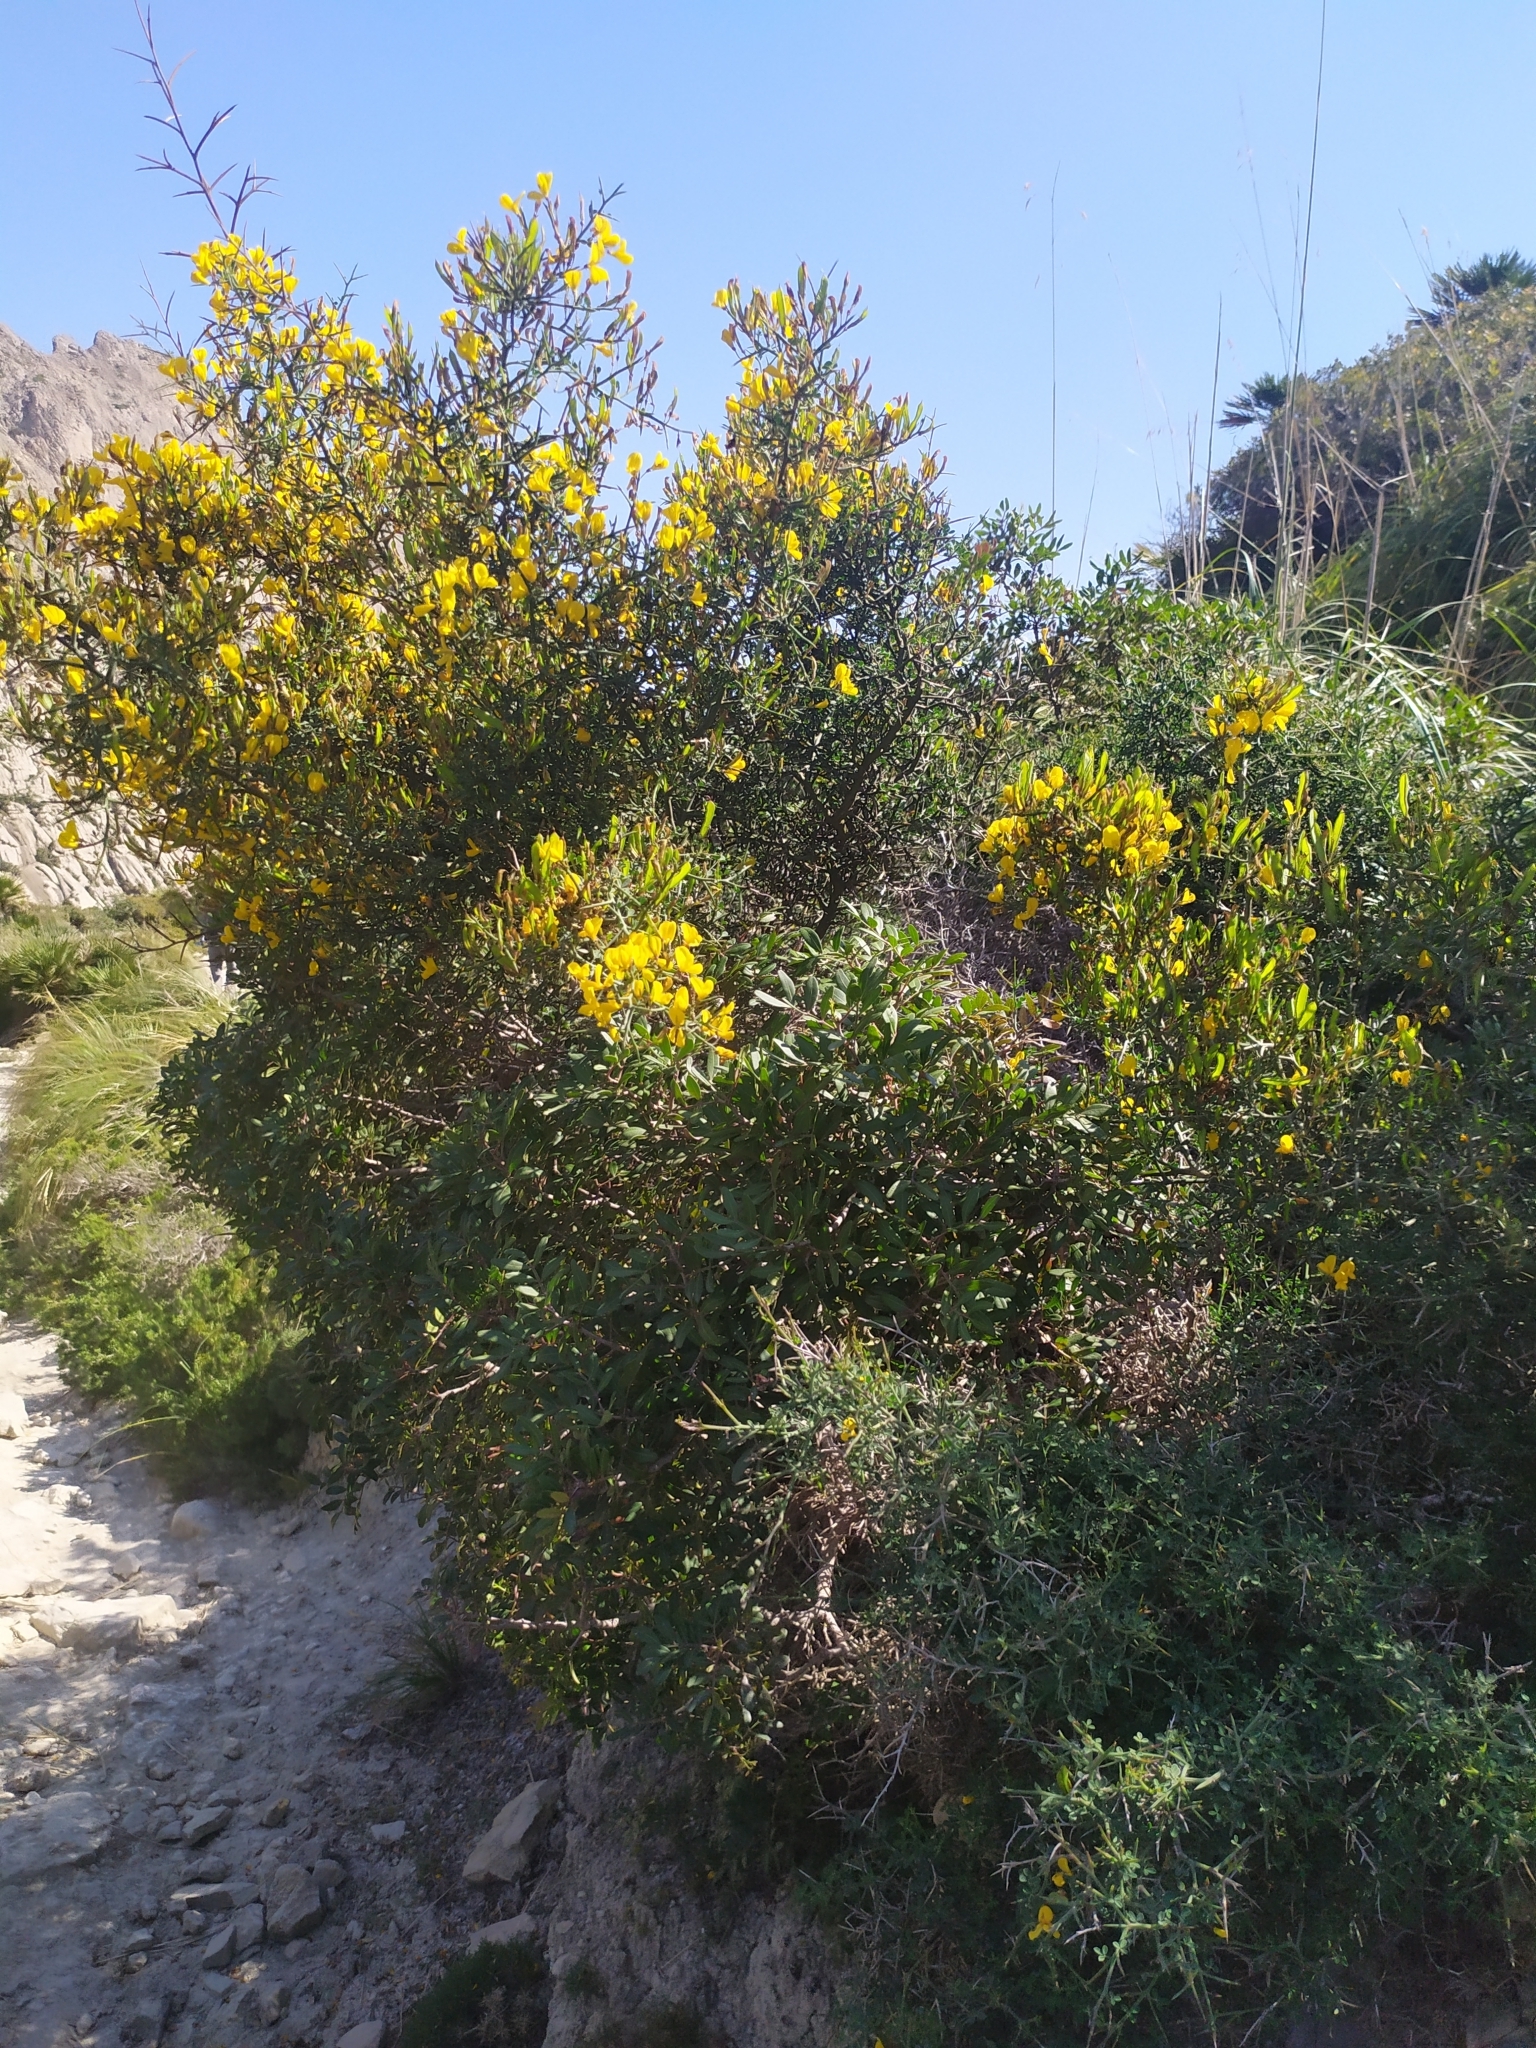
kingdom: Plantae
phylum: Tracheophyta
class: Magnoliopsida
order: Fabales
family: Fabaceae
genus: Calicotome
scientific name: Calicotome spinosa
